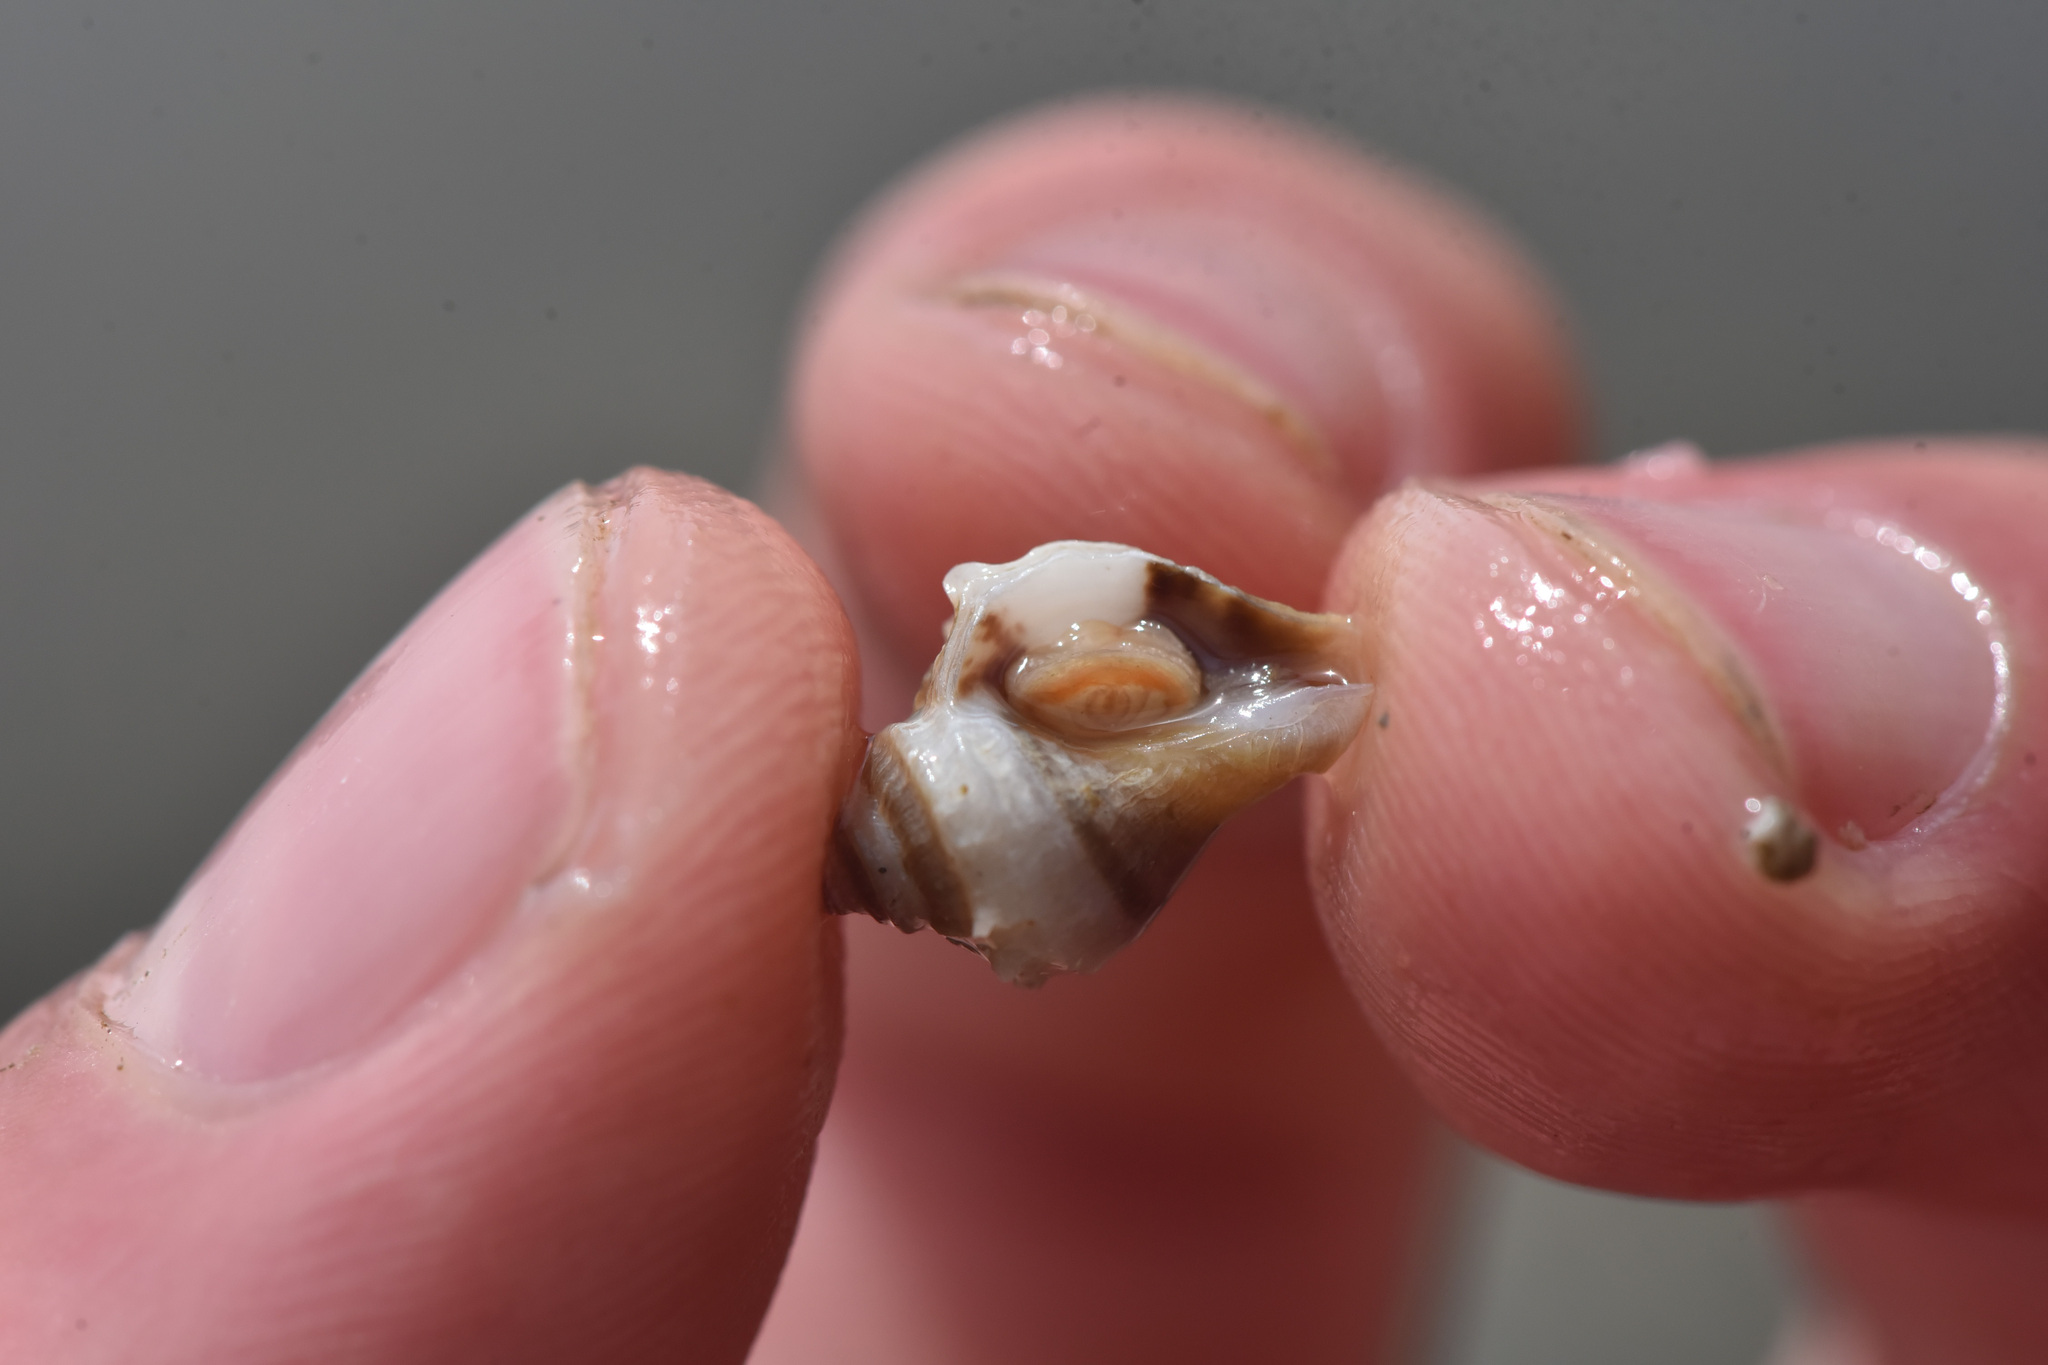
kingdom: Animalia
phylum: Mollusca
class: Gastropoda
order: Neogastropoda
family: Muricidae
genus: Nucella
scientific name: Nucella lamellosa
